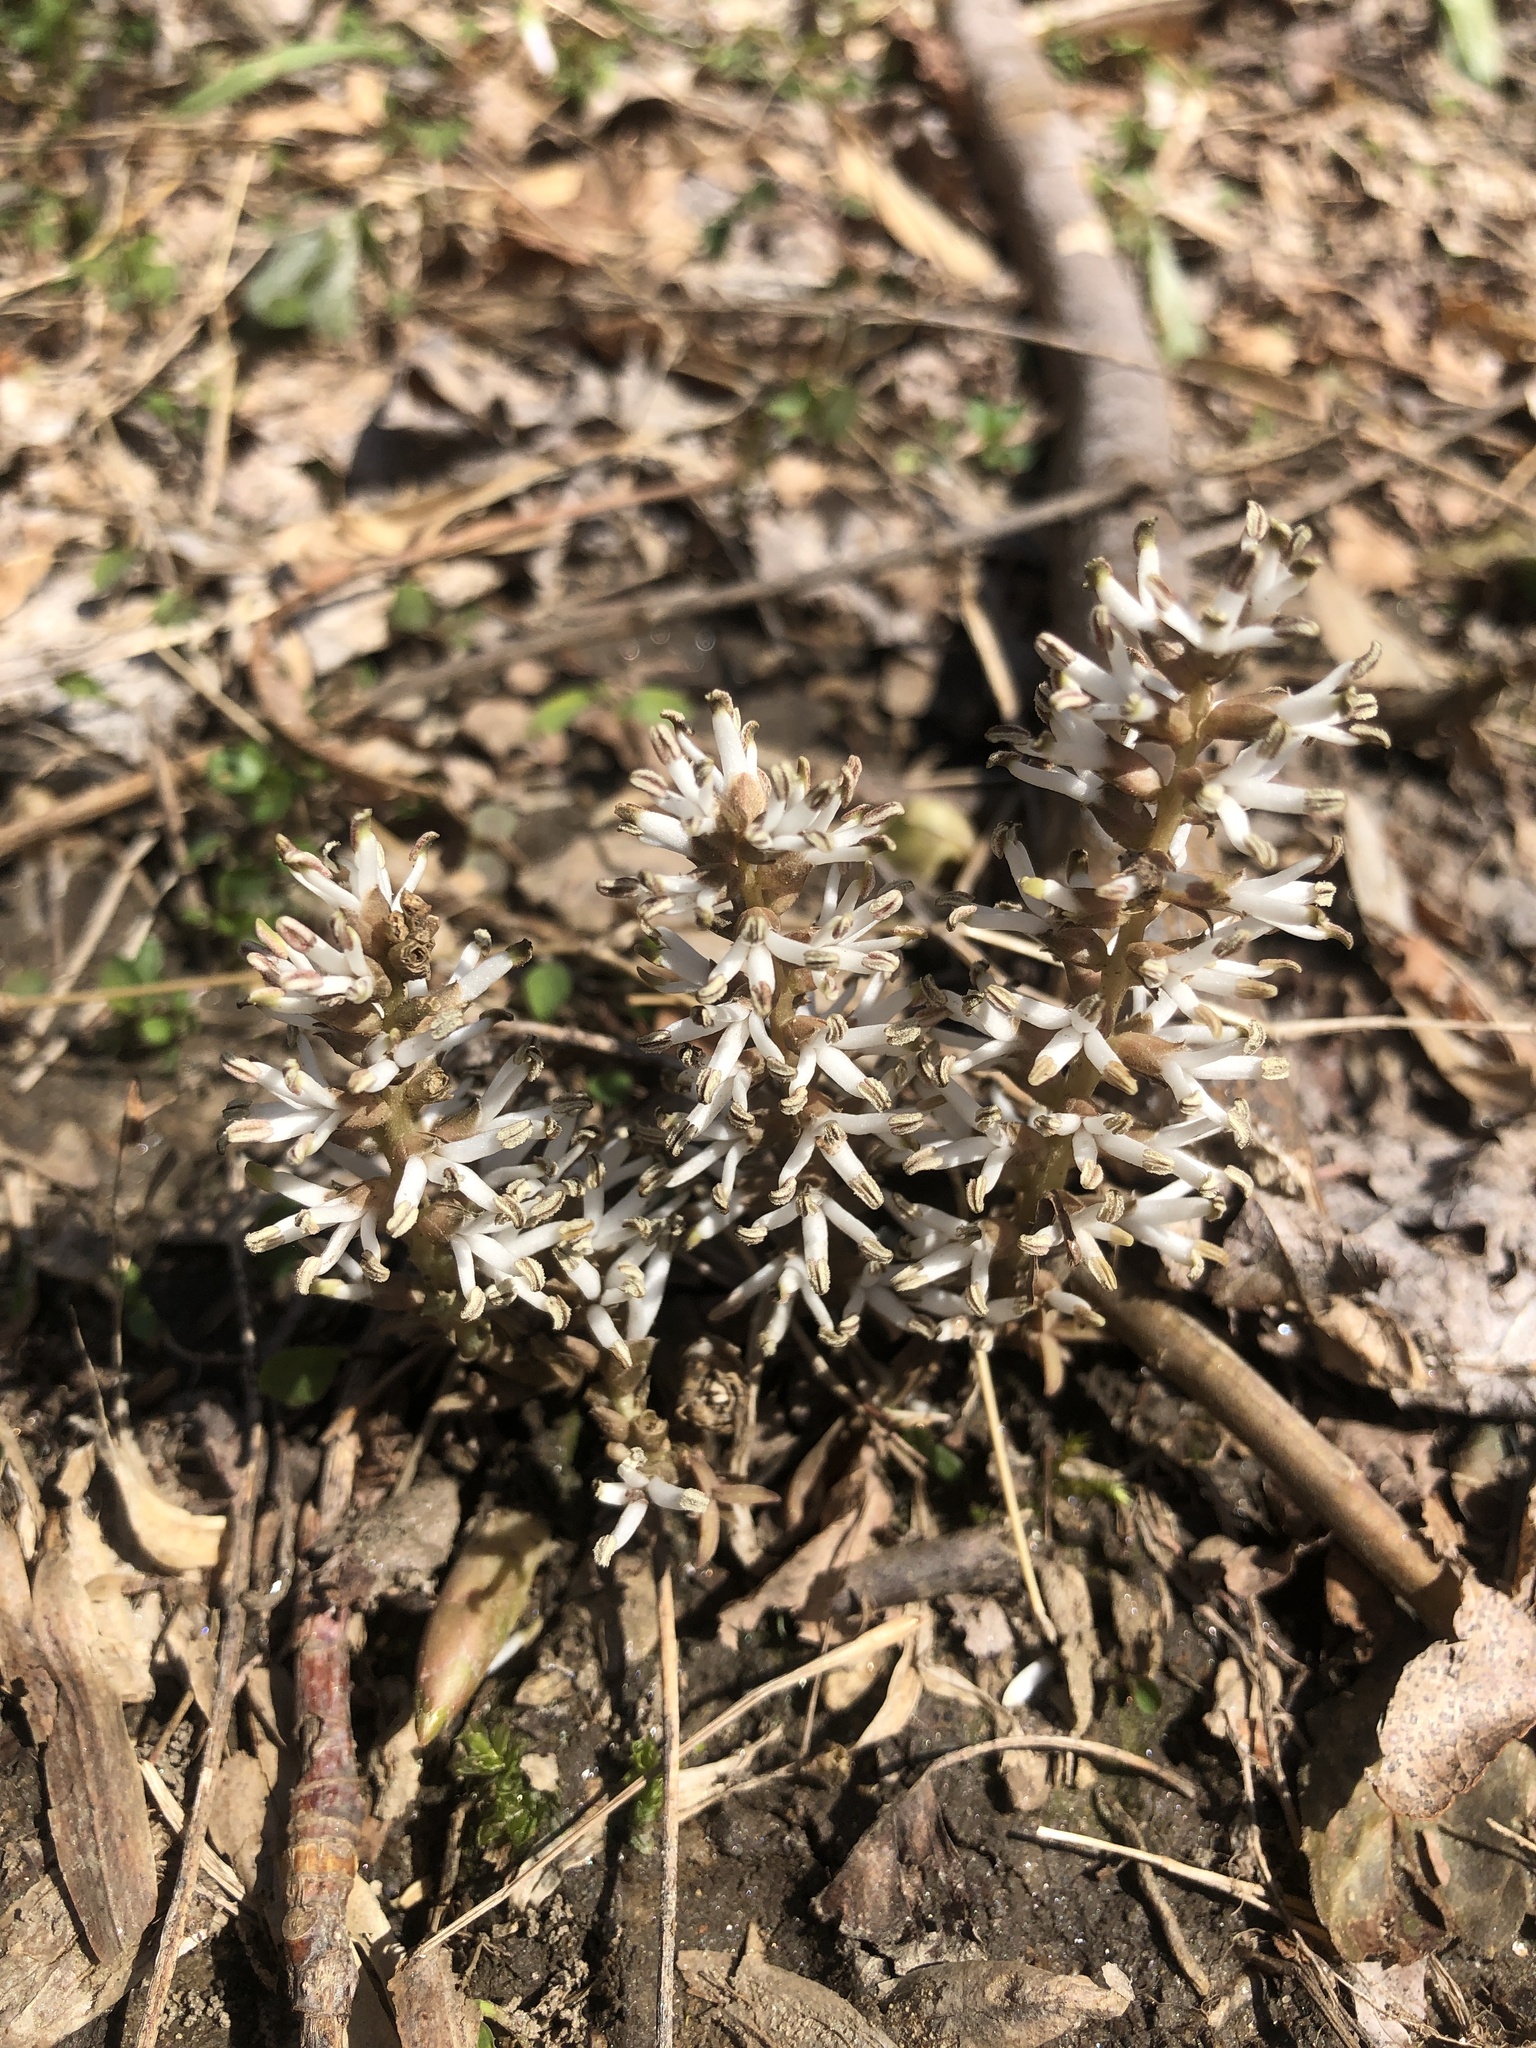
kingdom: Plantae
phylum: Tracheophyta
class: Magnoliopsida
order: Buxales
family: Buxaceae
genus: Pachysandra
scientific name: Pachysandra procumbens
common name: Mountain-spurge
